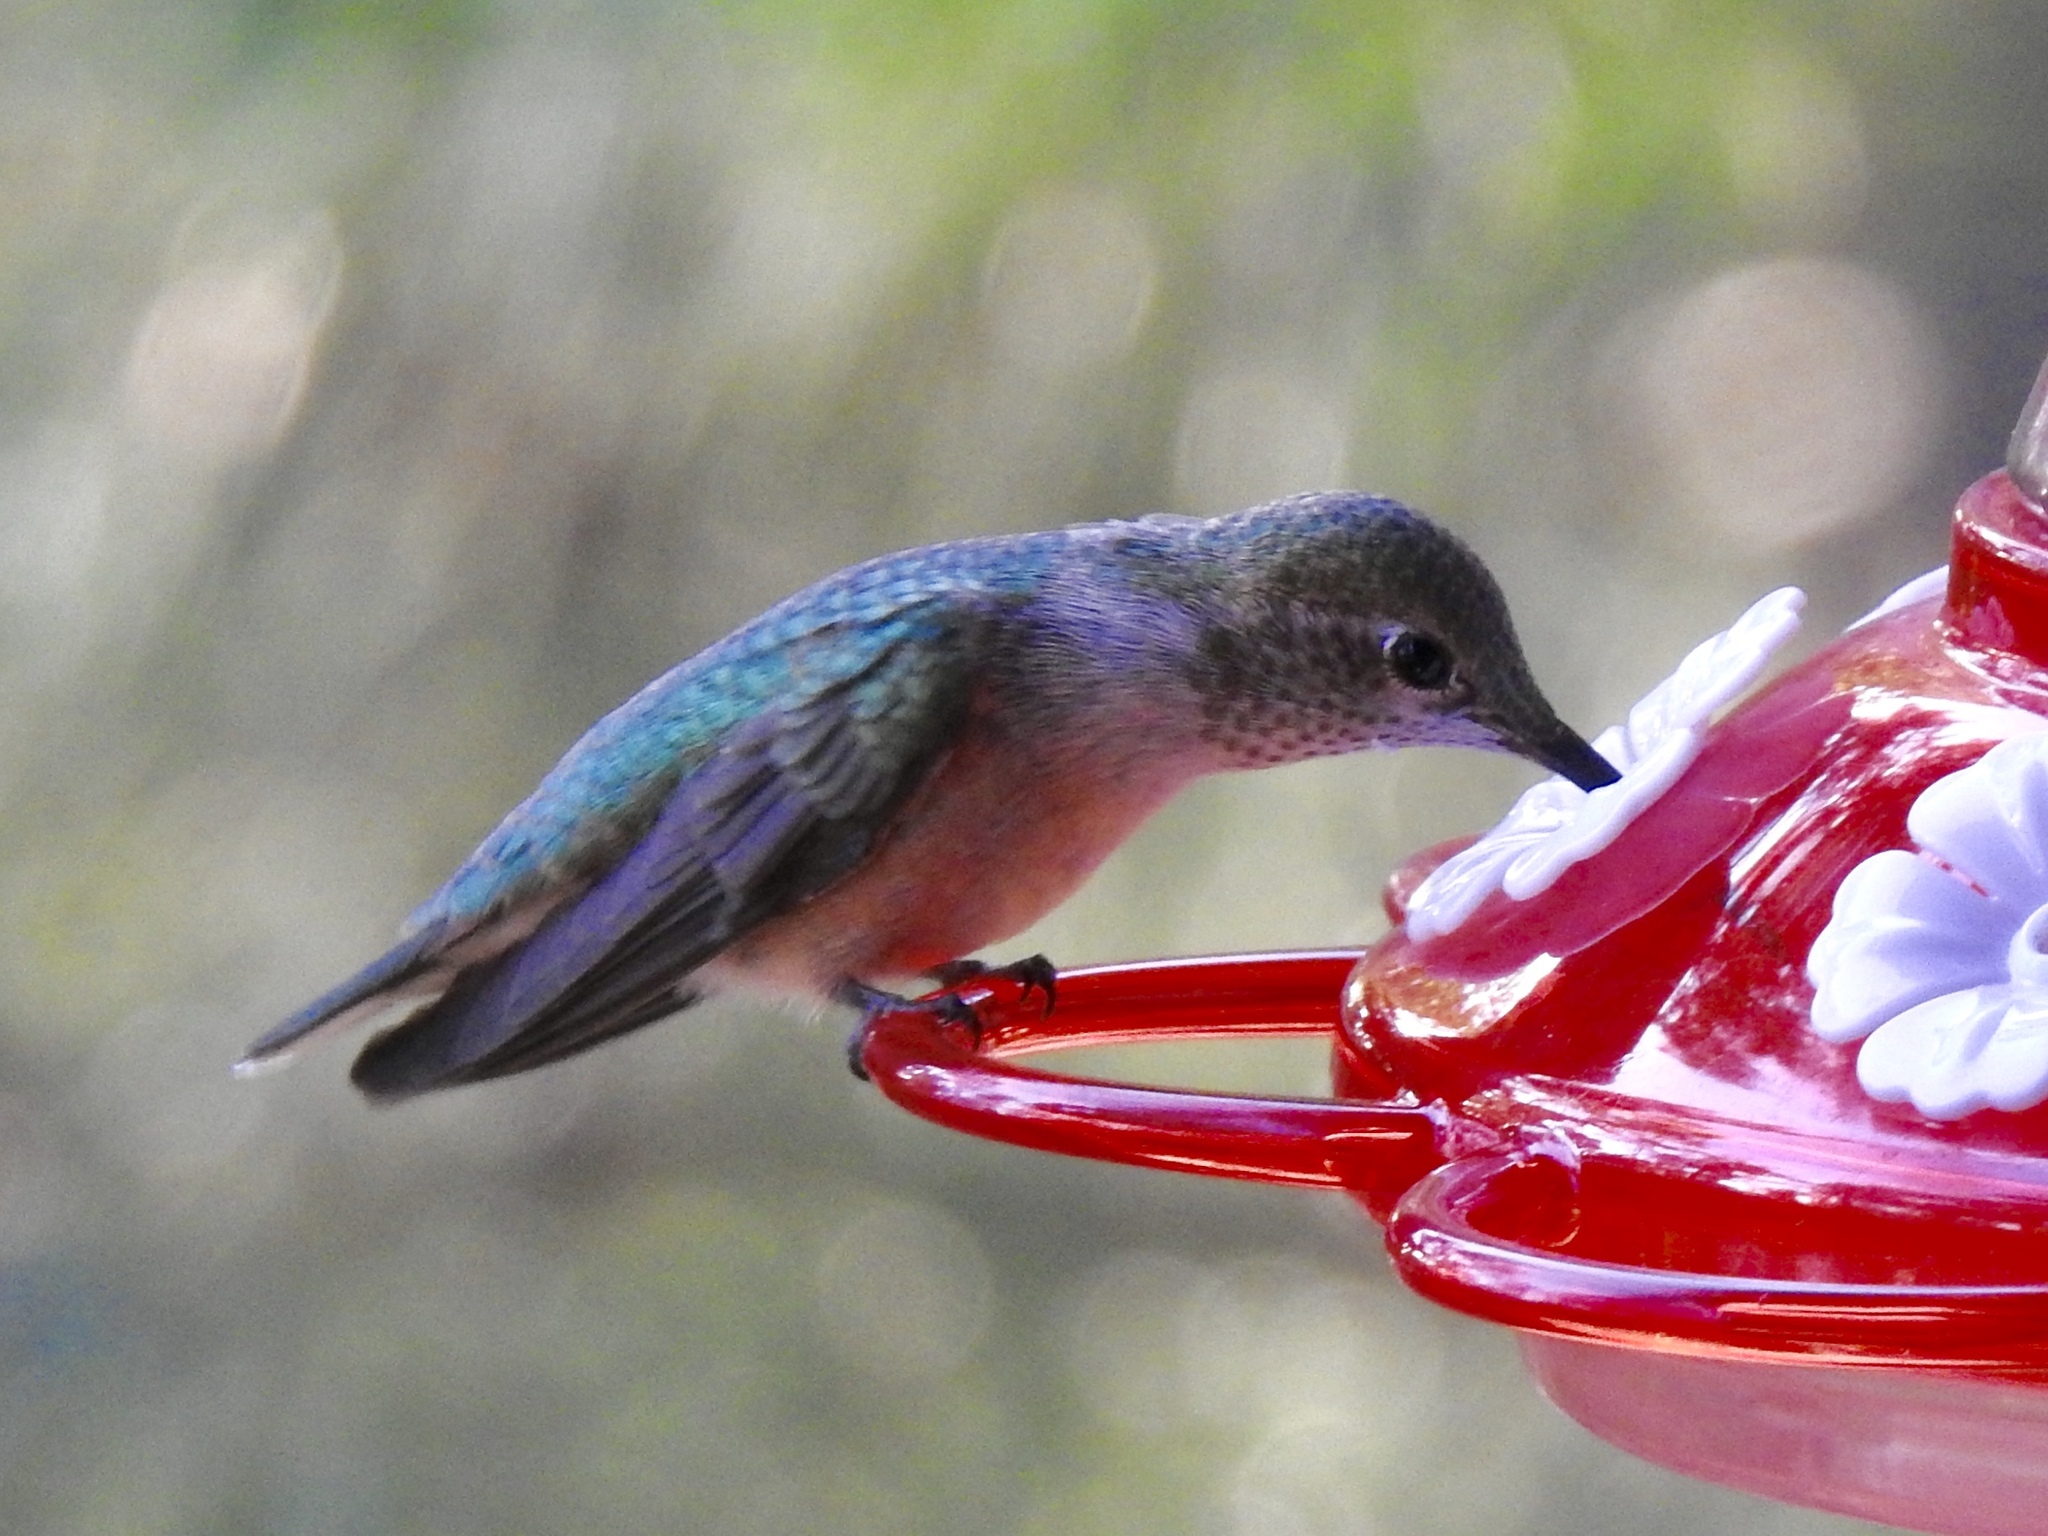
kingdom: Animalia
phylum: Chordata
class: Aves
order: Apodiformes
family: Trochilidae
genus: Selasphorus
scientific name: Selasphorus platycercus
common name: Broad-tailed hummingbird
